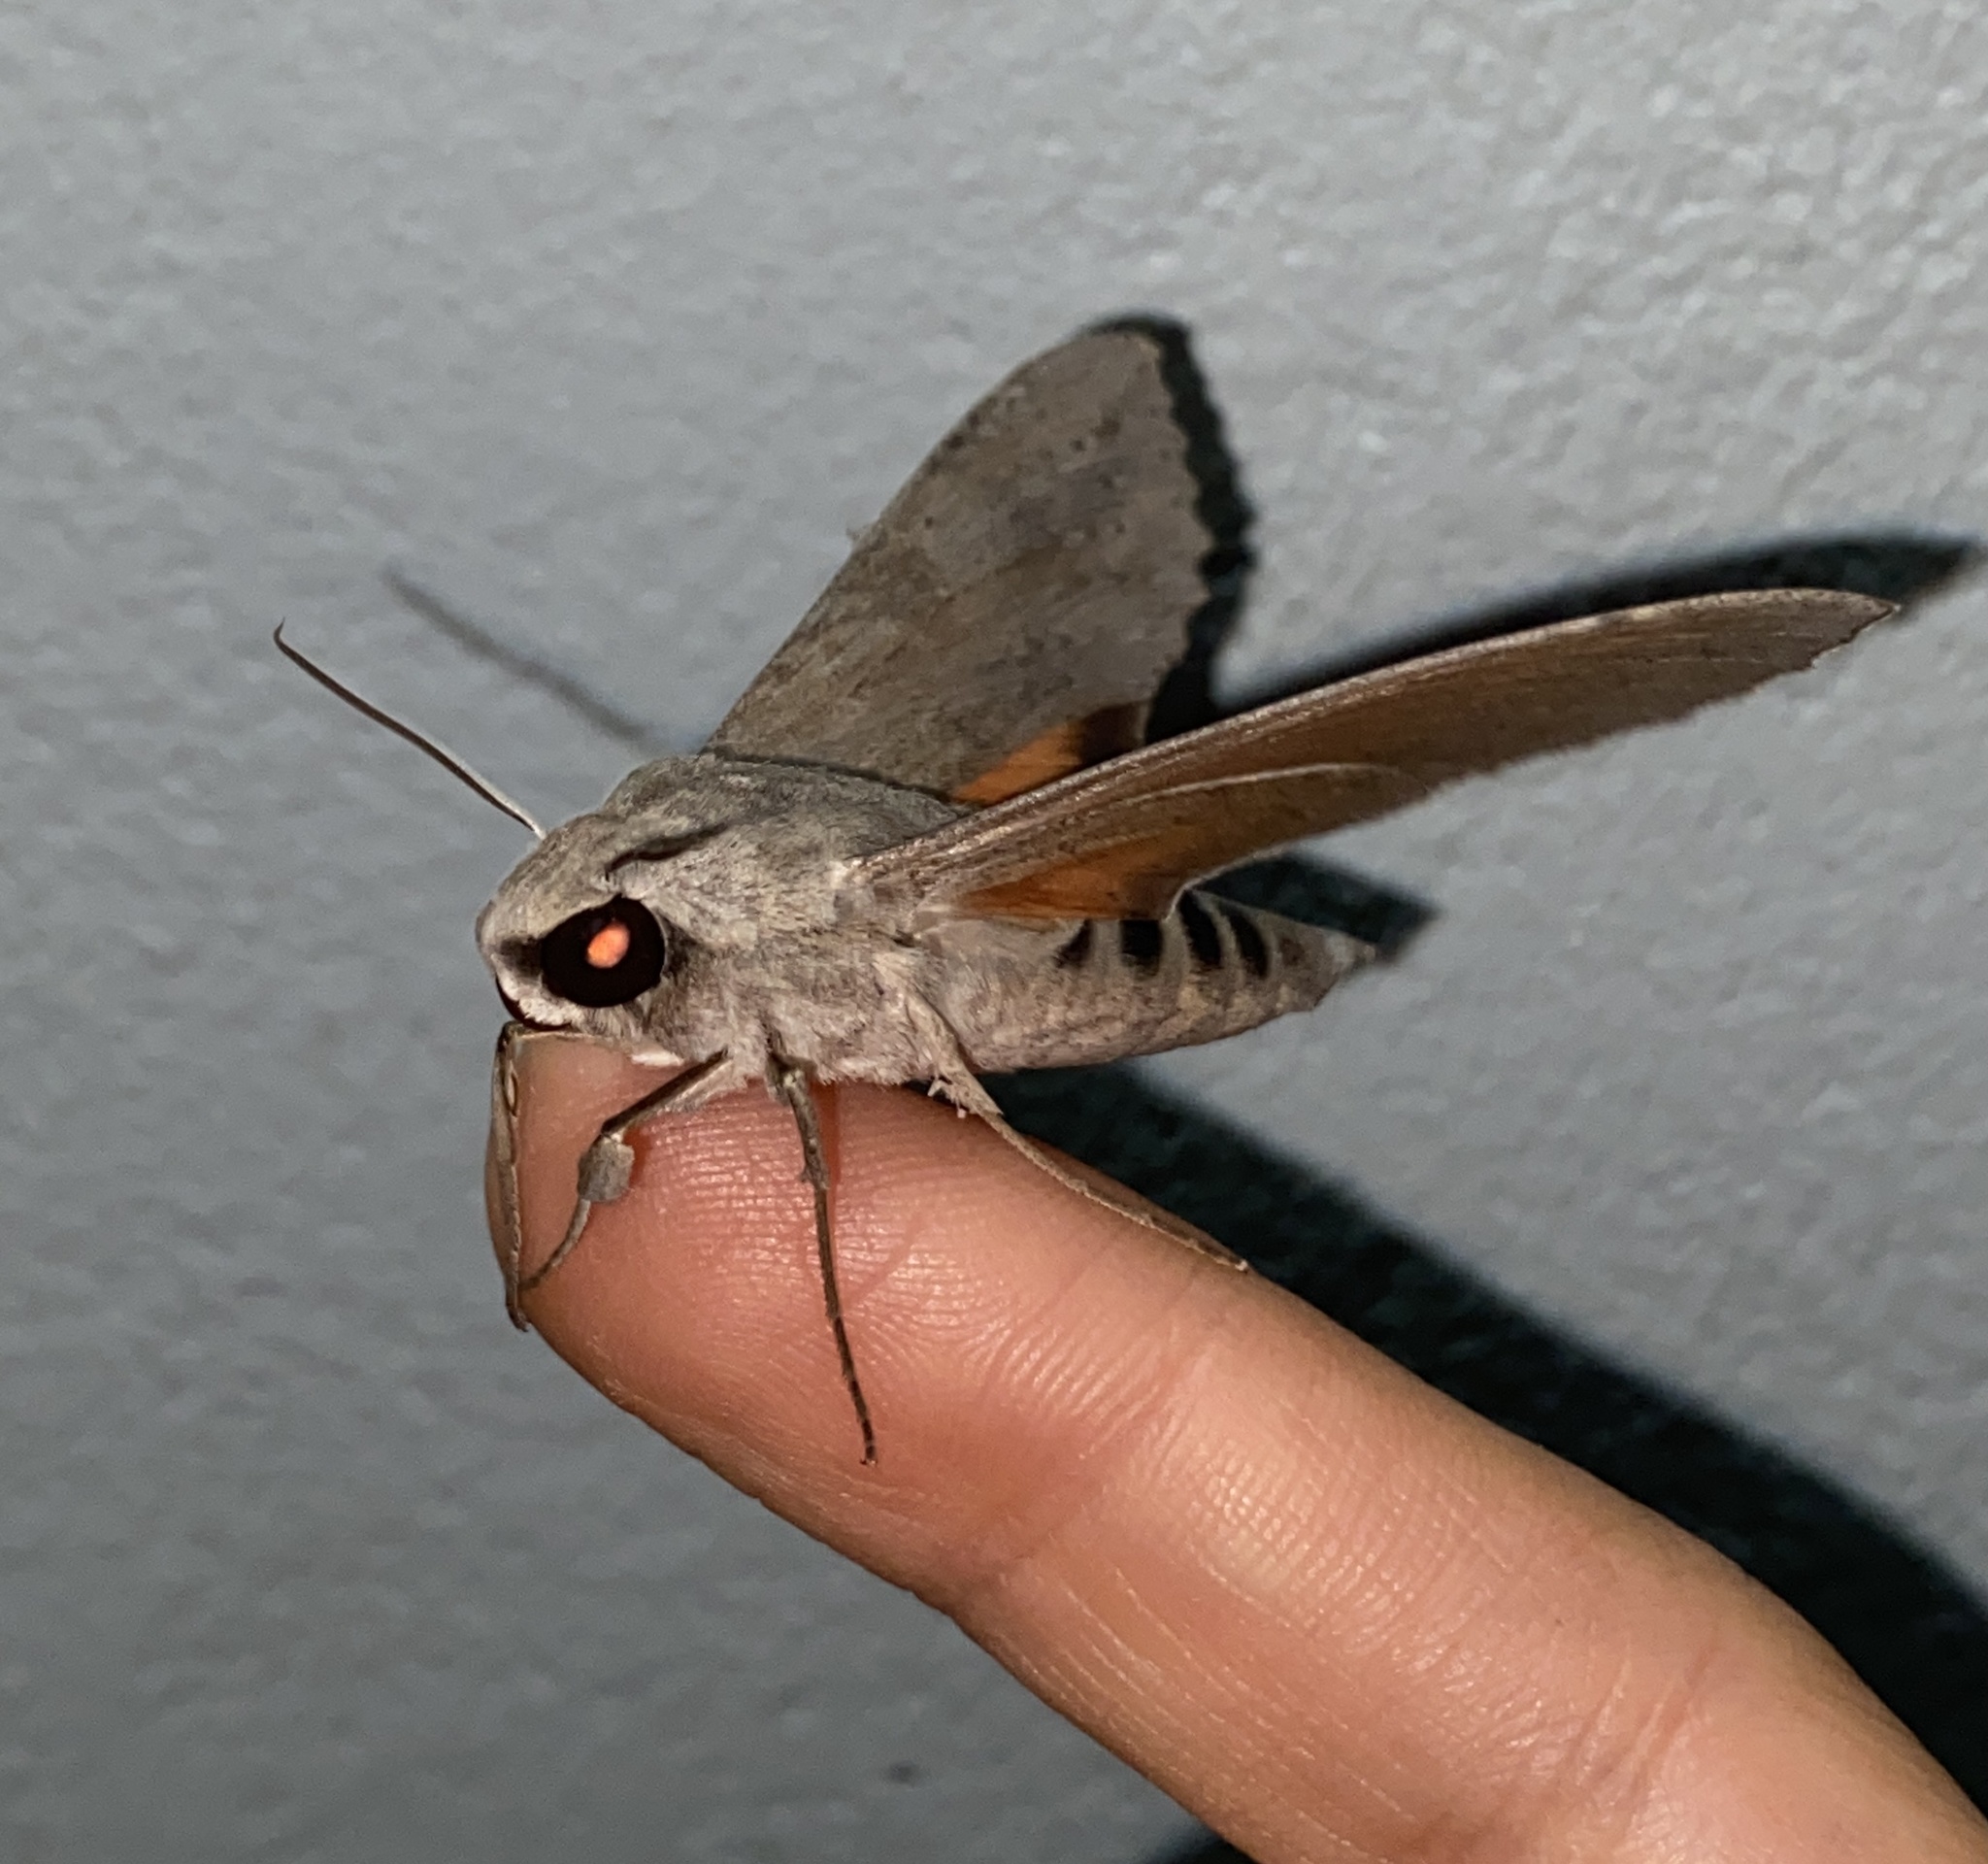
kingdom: Animalia
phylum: Arthropoda
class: Insecta
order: Lepidoptera
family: Sphingidae
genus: Erinnyis
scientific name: Erinnyis ello
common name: Ello sphinx
